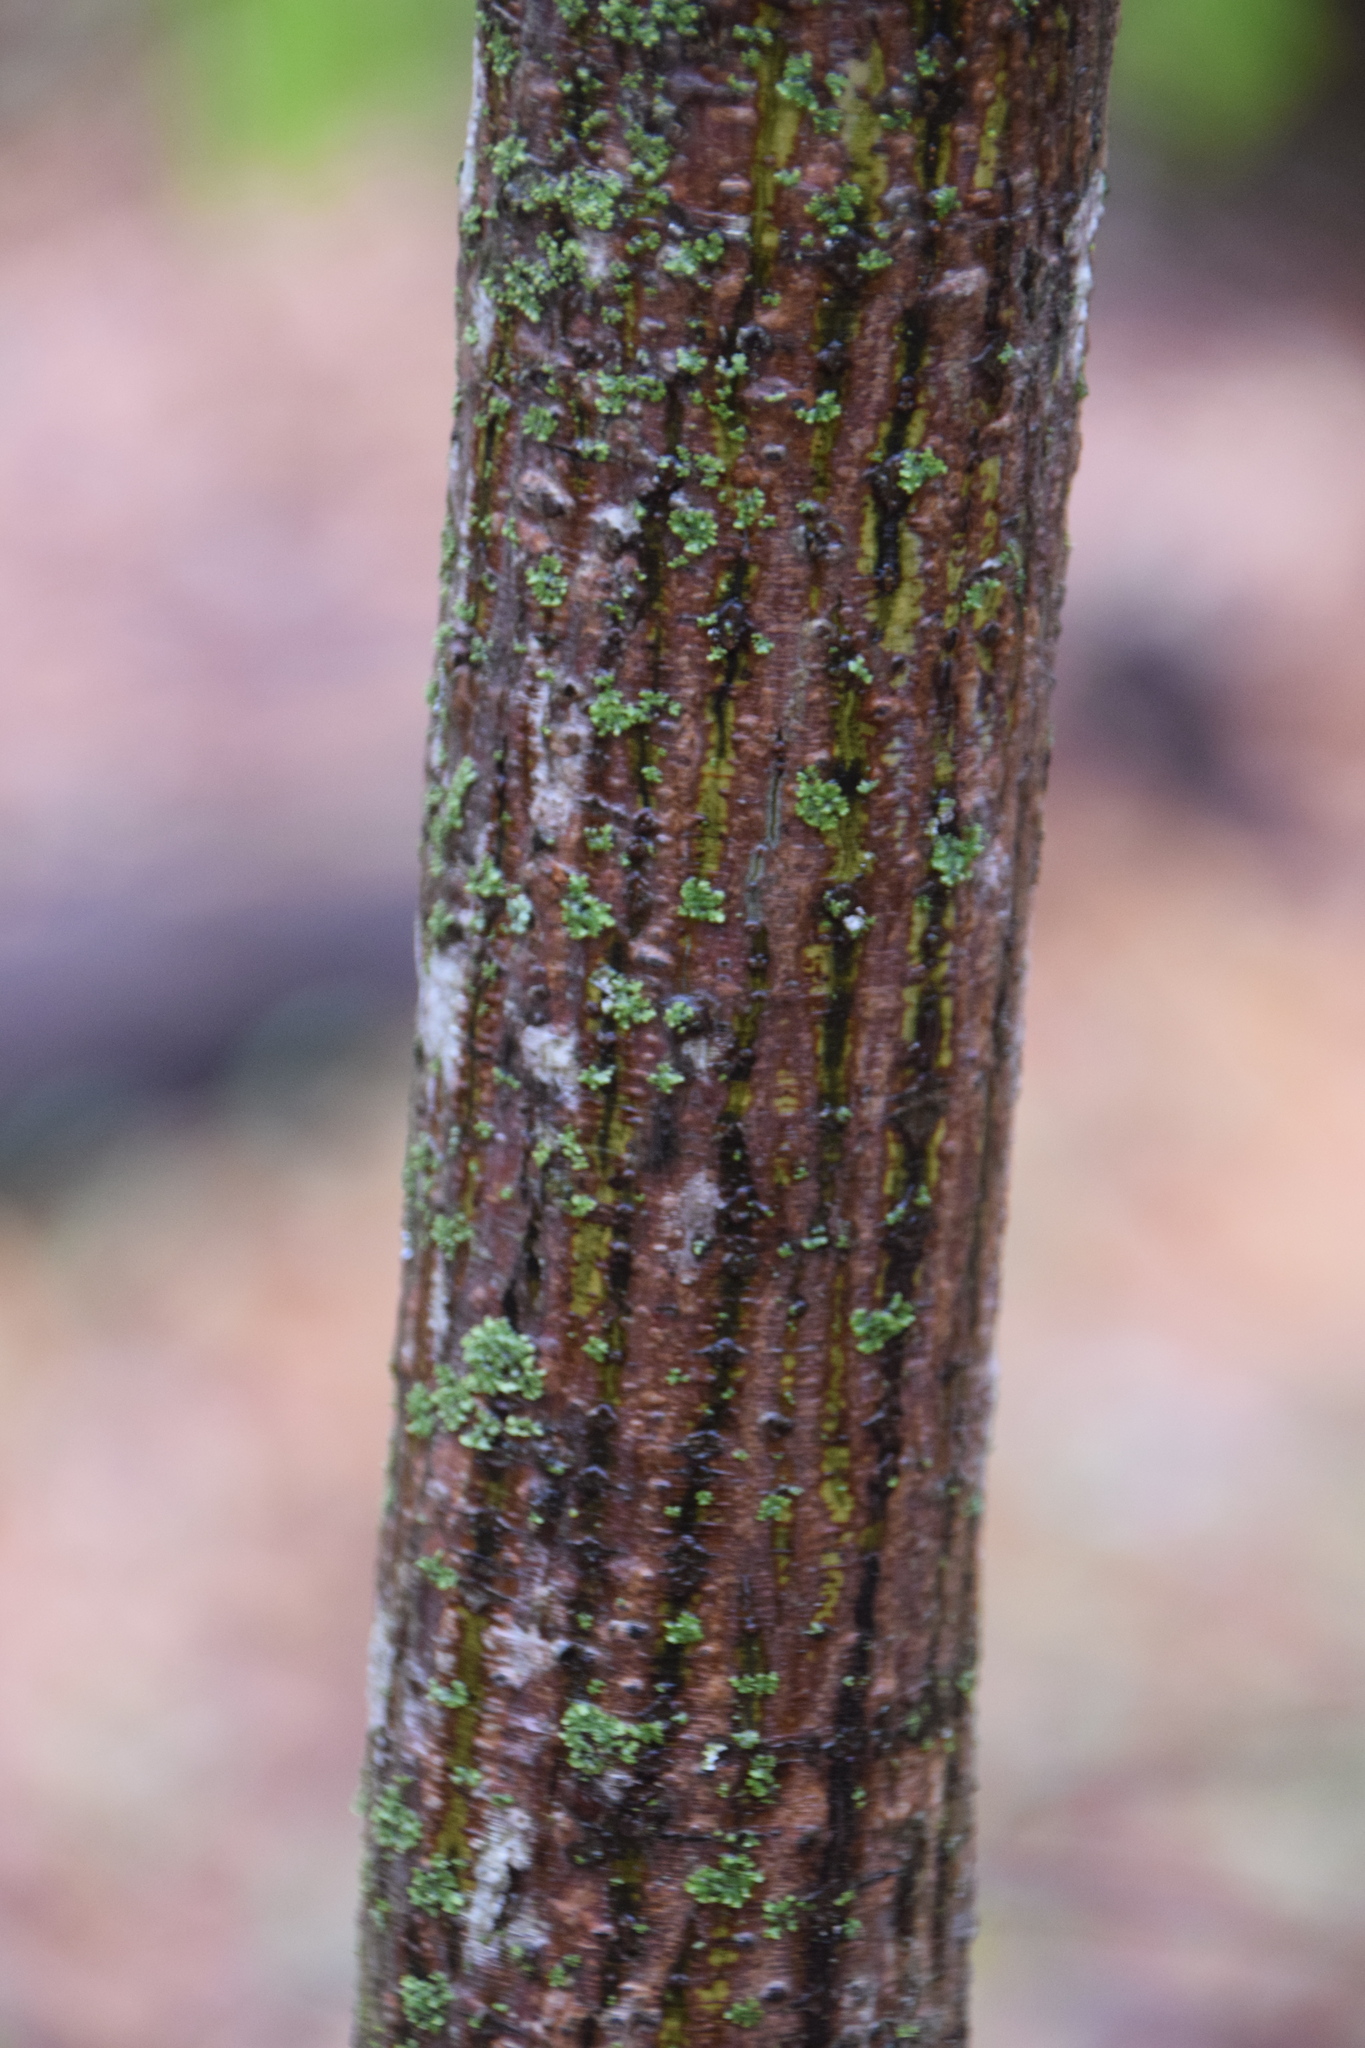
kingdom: Plantae
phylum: Tracheophyta
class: Magnoliopsida
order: Sapindales
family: Sapindaceae
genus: Acer
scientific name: Acer pensylvanicum
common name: Moosewood
